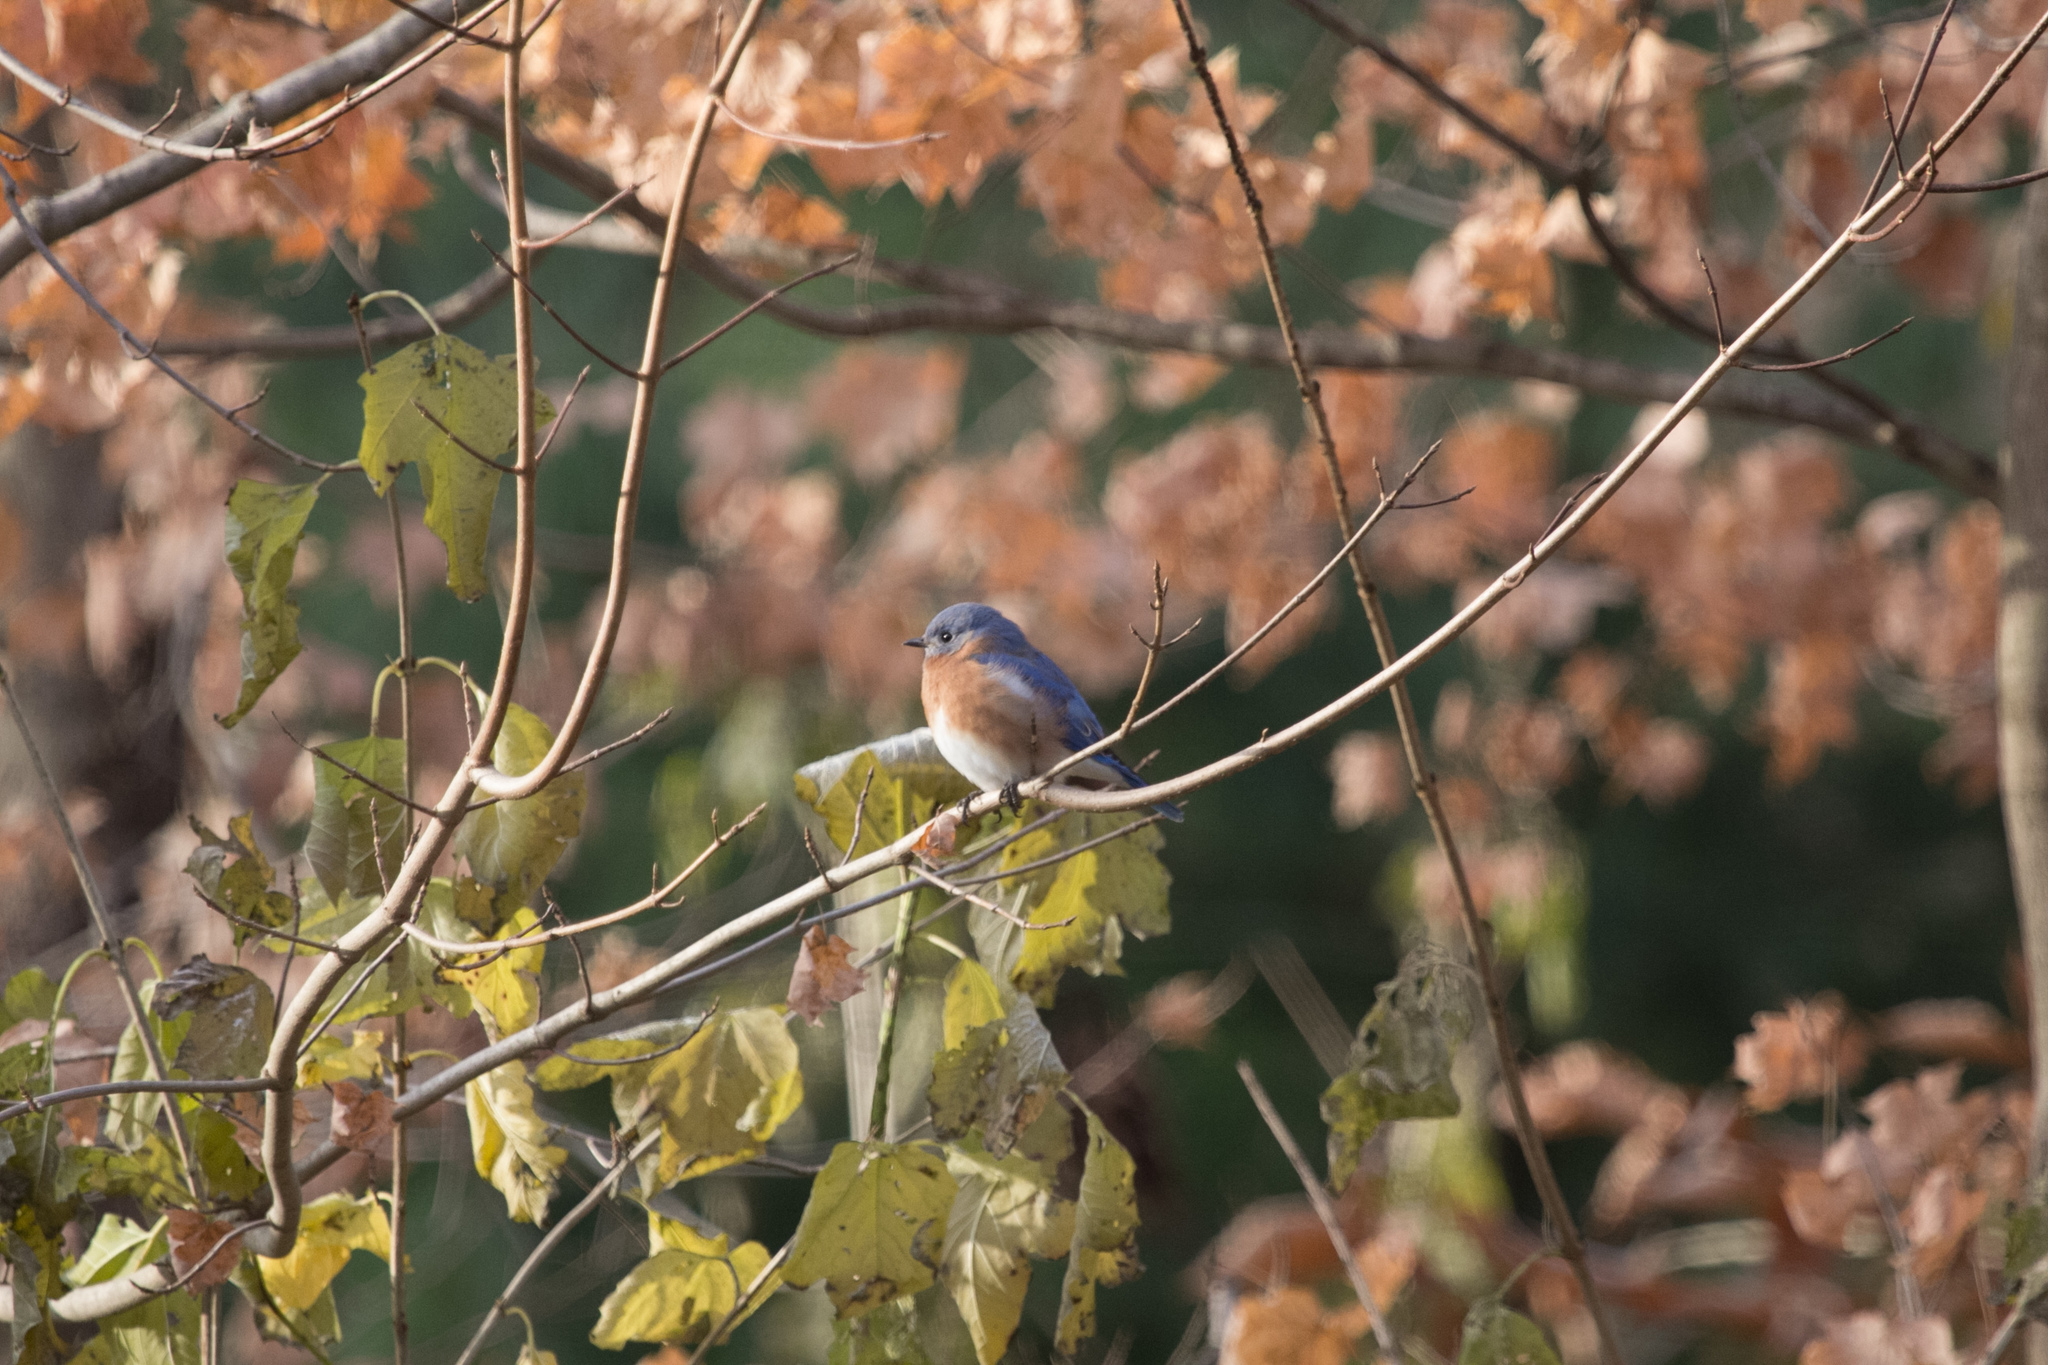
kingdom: Animalia
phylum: Chordata
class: Aves
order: Passeriformes
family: Turdidae
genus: Sialia
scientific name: Sialia sialis
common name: Eastern bluebird
